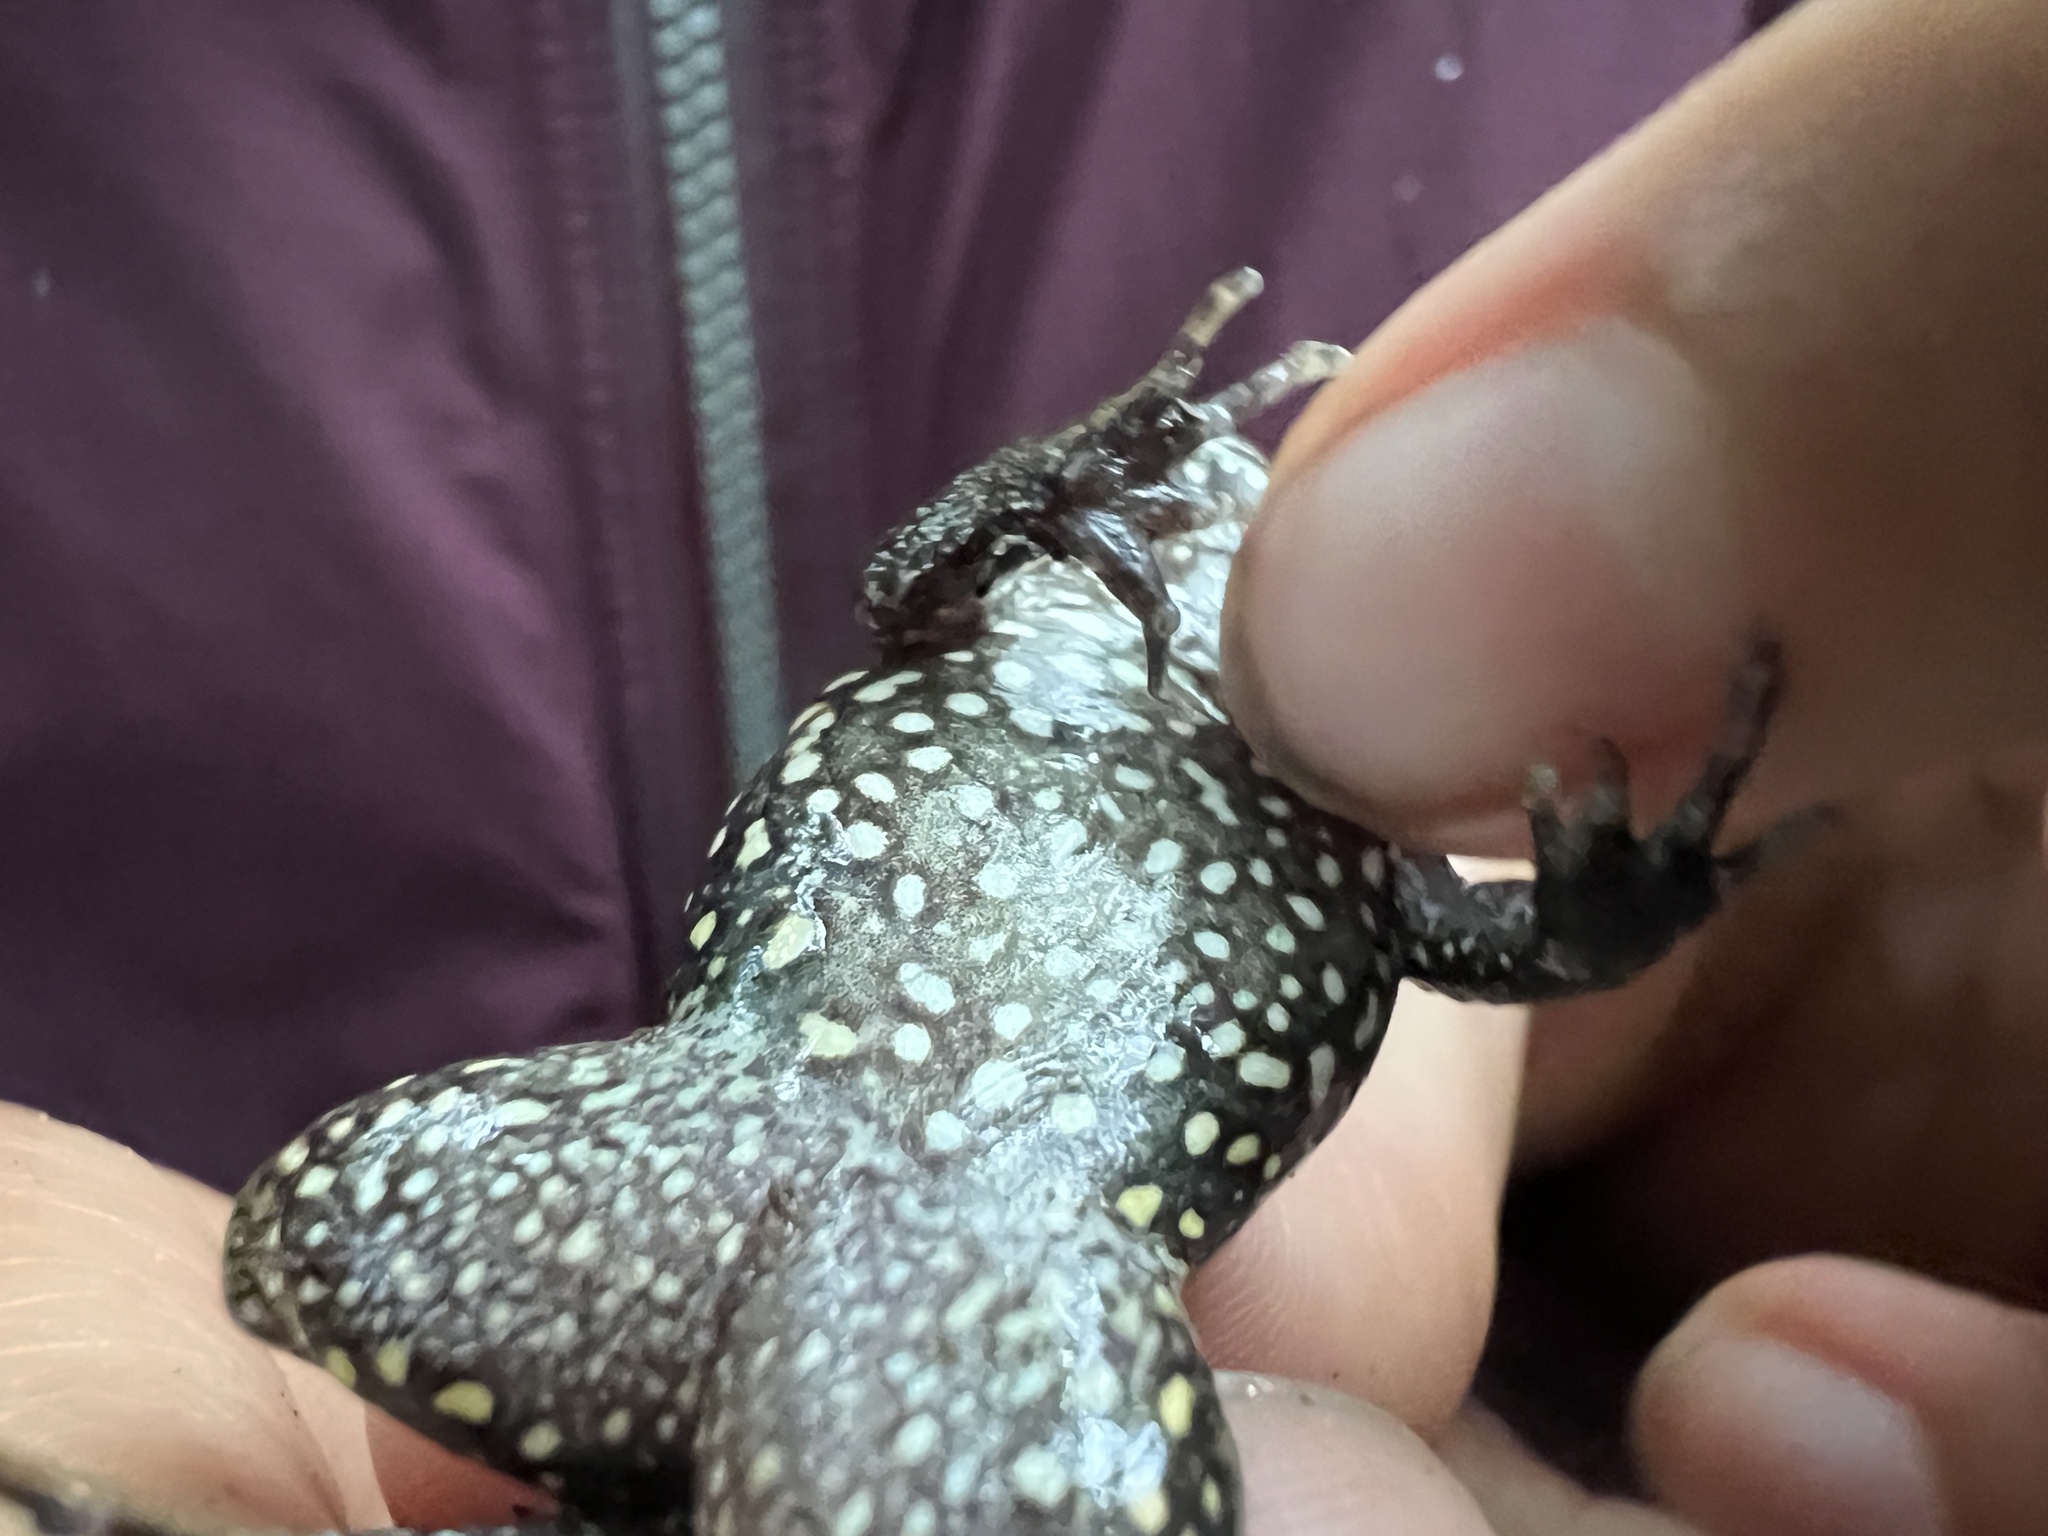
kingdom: Animalia
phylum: Chordata
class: Amphibia
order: Anura
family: Leptodactylidae
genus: Leptodactylus
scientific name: Leptodactylus podicipinus
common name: Pointedbelly frog
